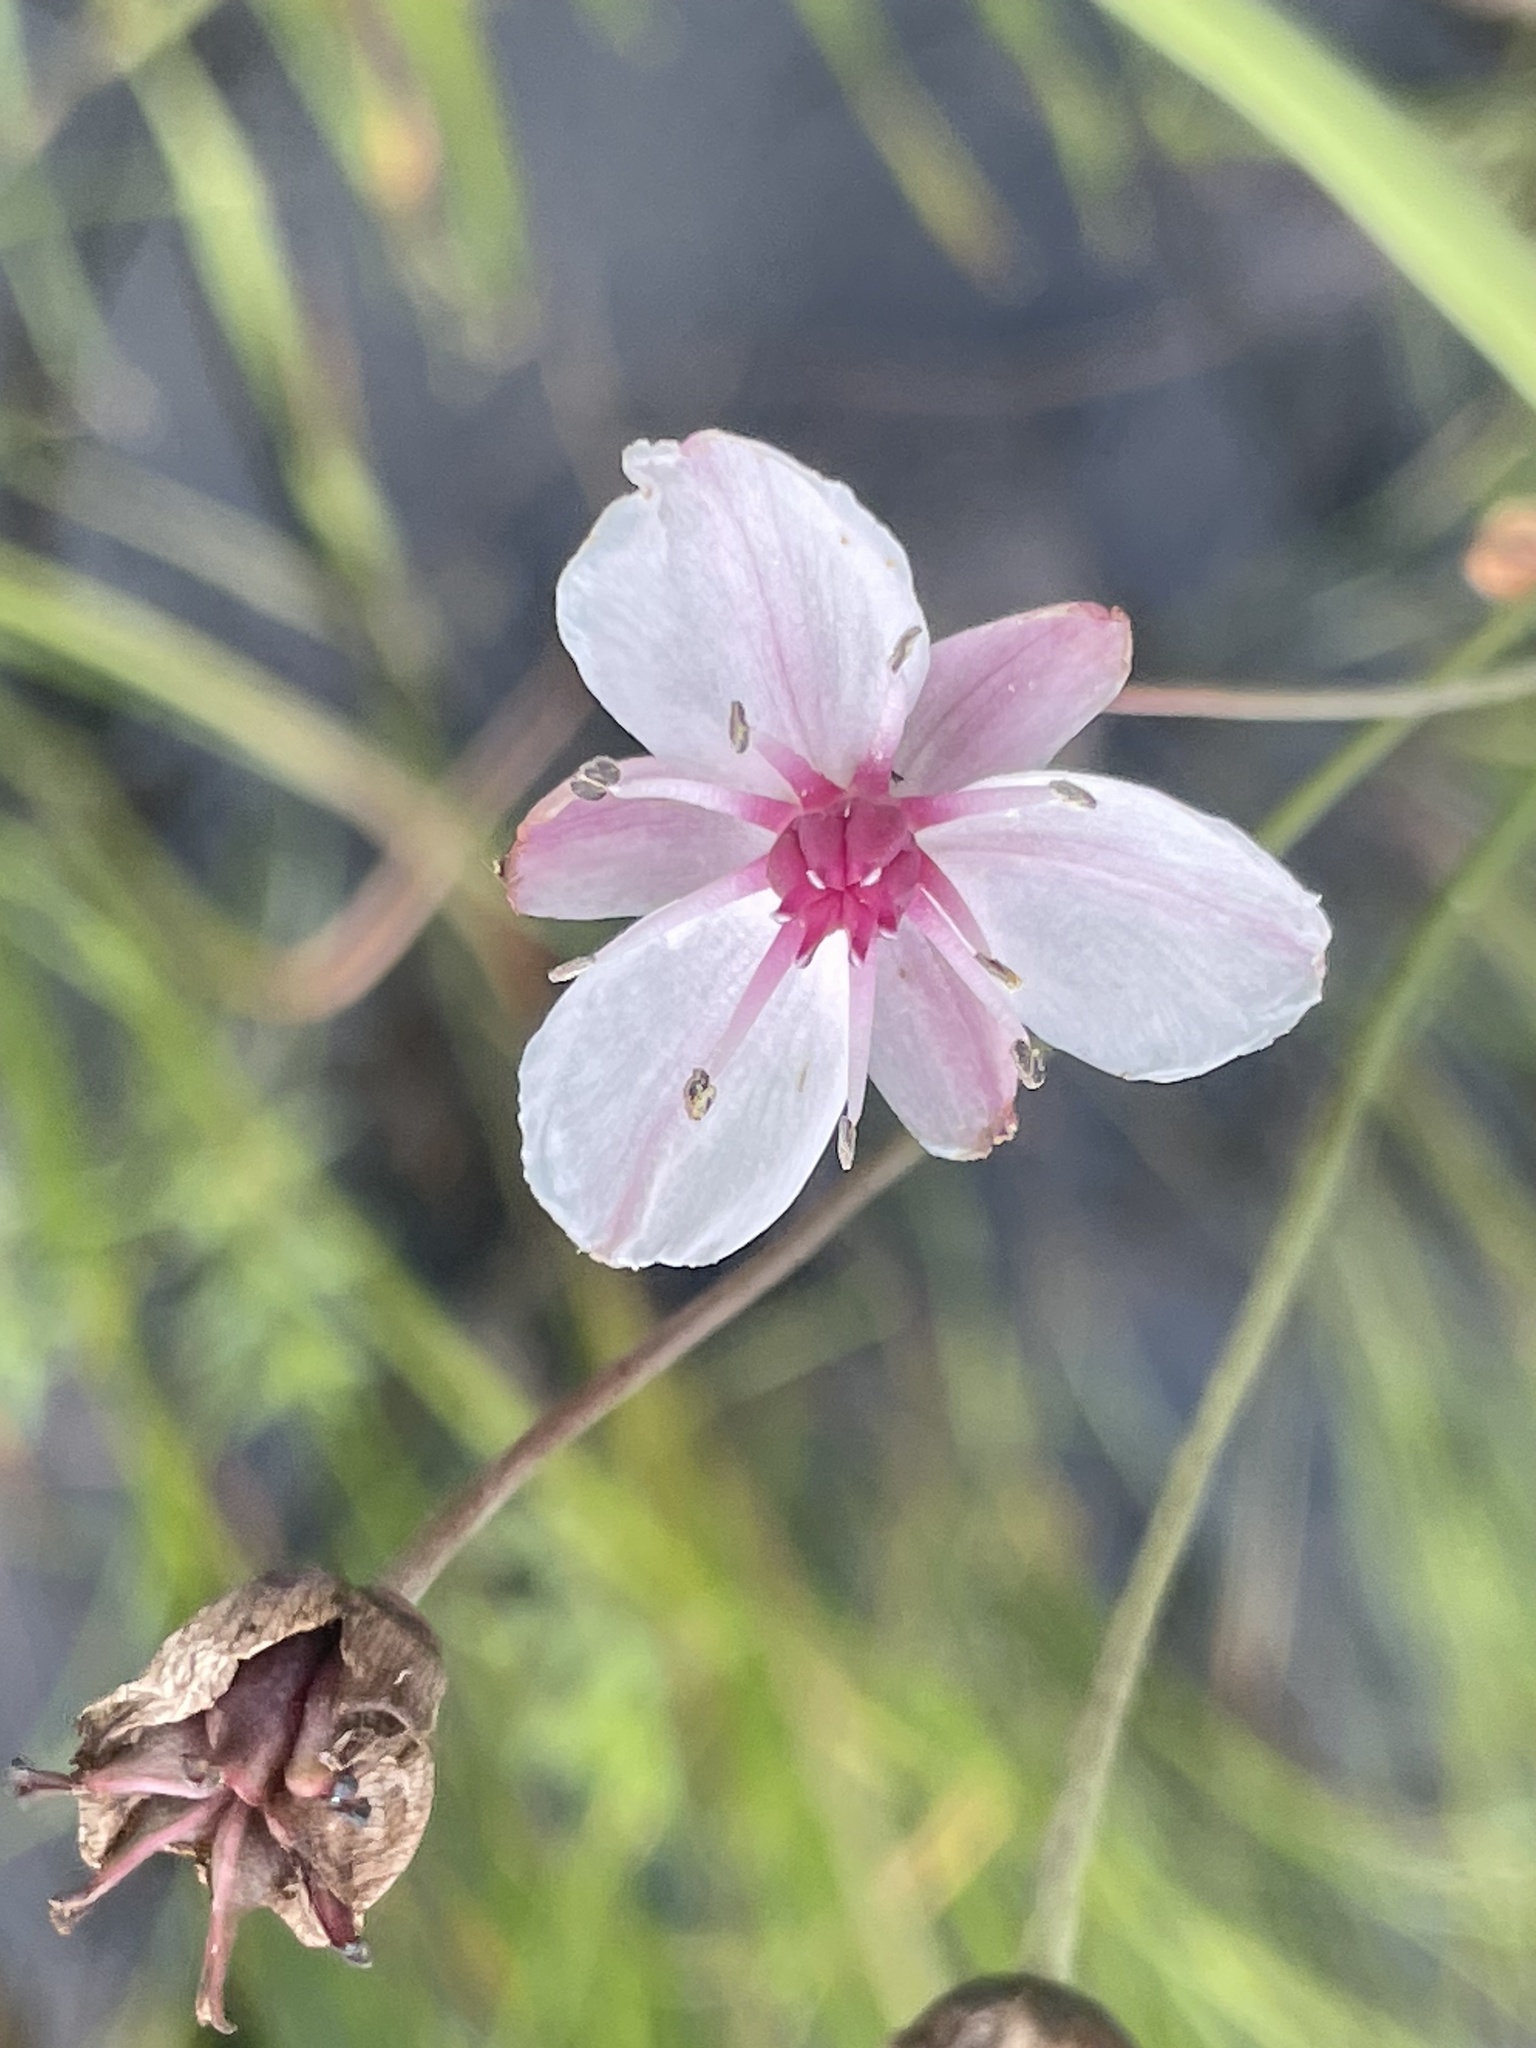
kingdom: Plantae
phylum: Tracheophyta
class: Liliopsida
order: Alismatales
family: Butomaceae
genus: Butomus
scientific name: Butomus umbellatus
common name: Flowering-rush
